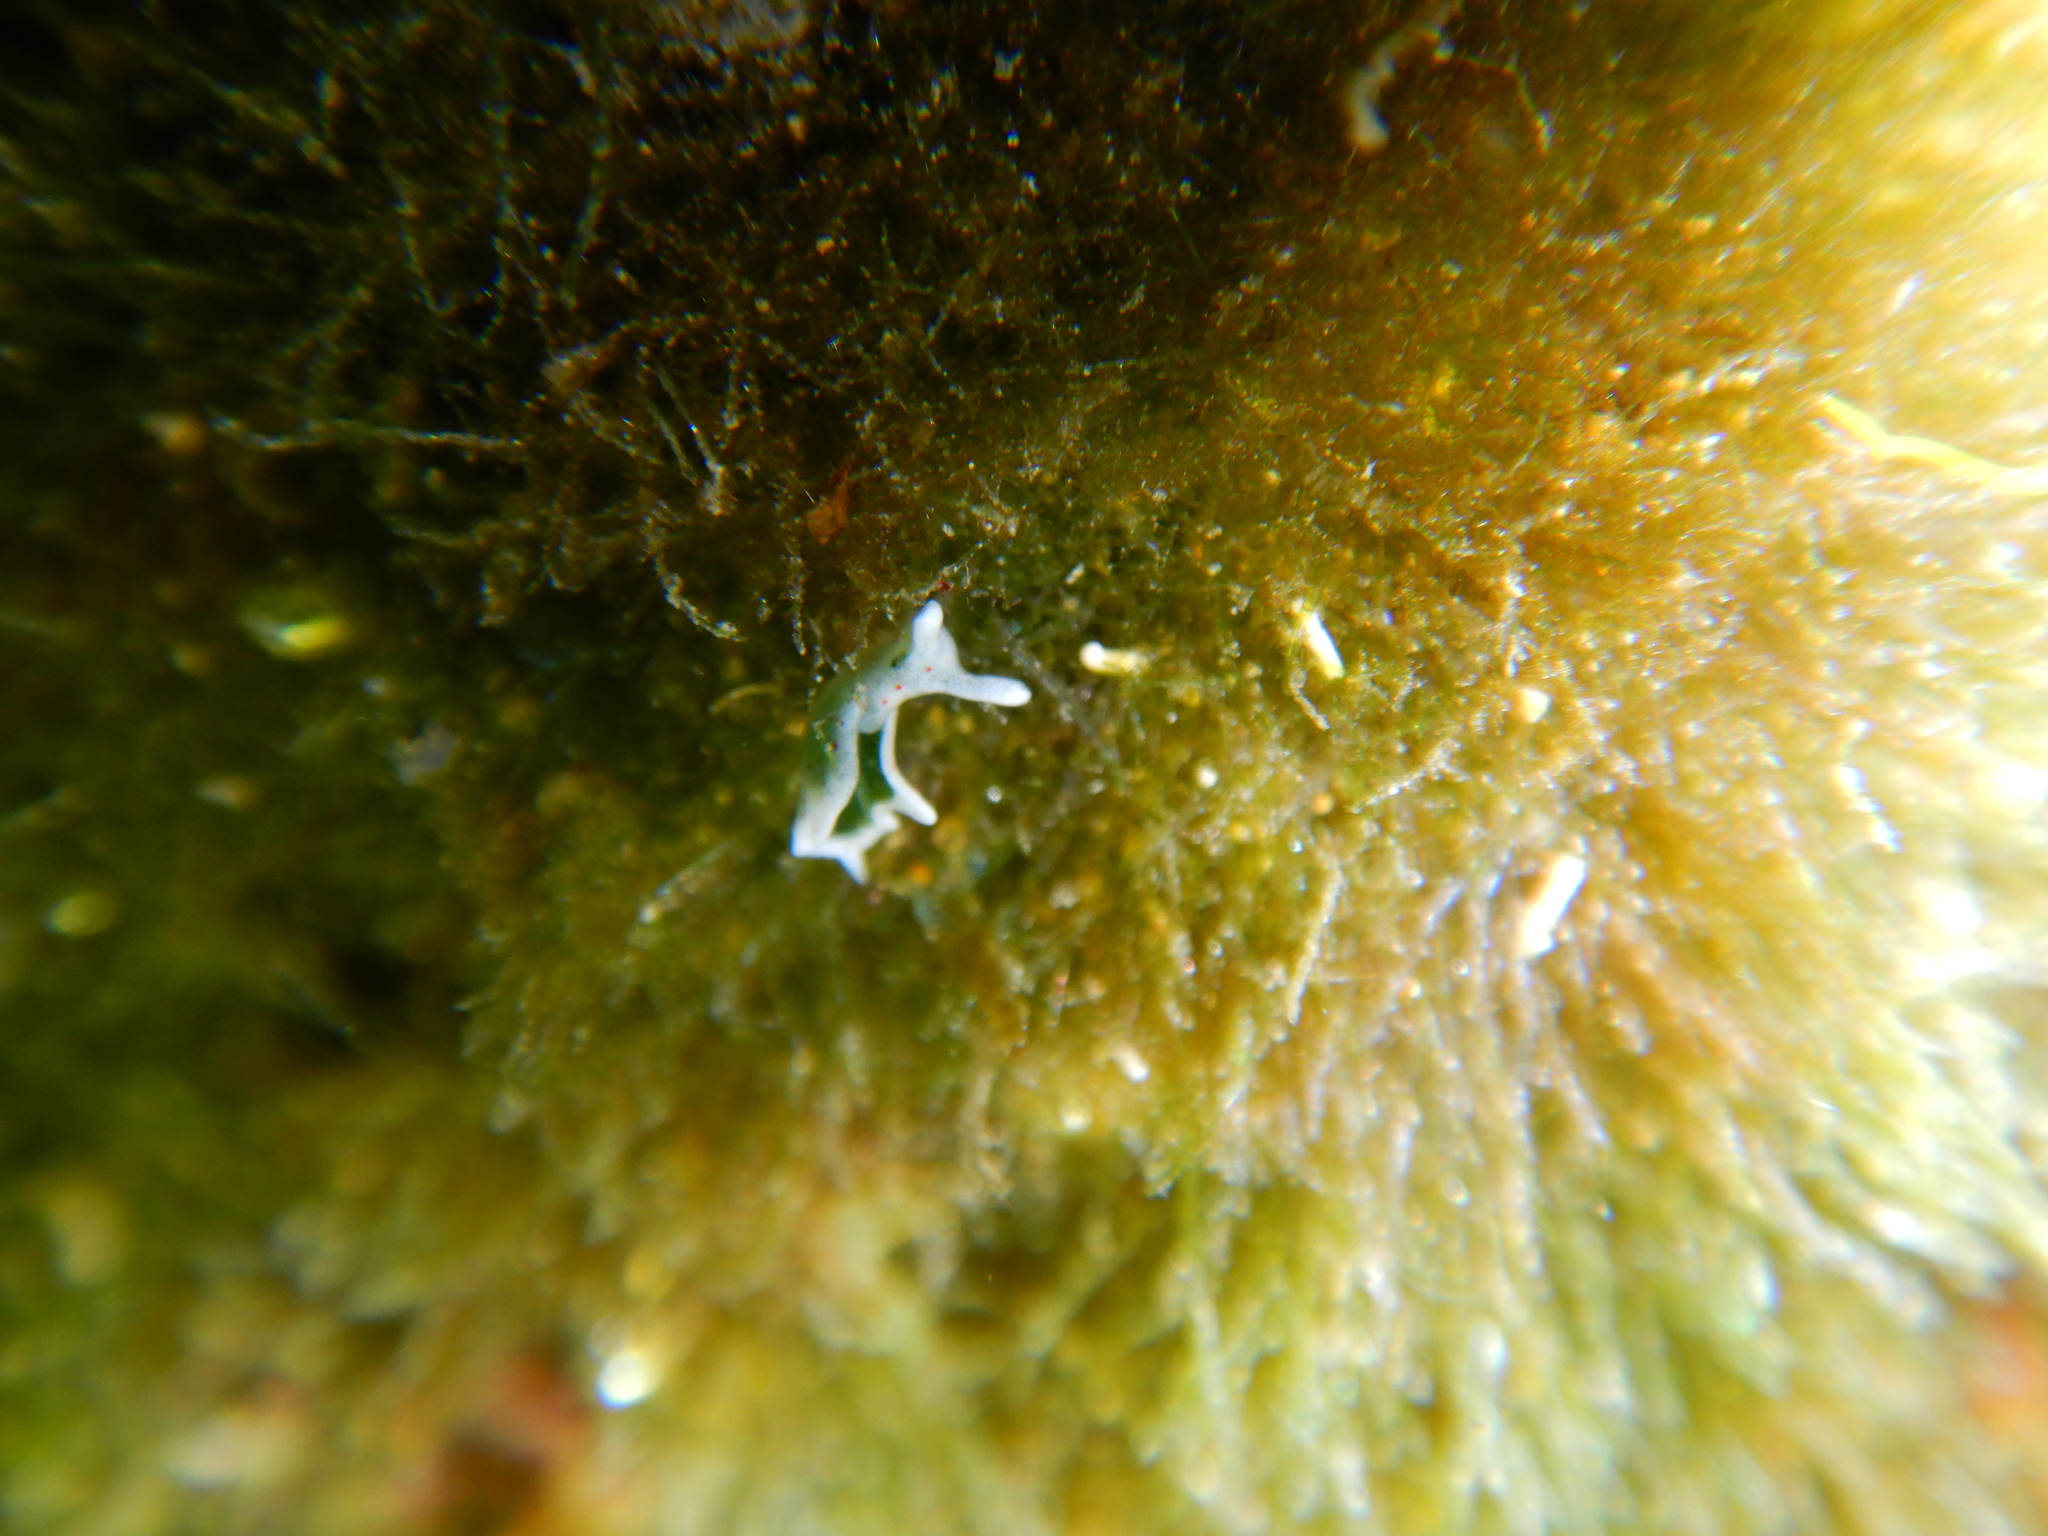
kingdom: Animalia
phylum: Mollusca
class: Gastropoda
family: Plakobranchidae
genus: Elysia
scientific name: Elysia timida
